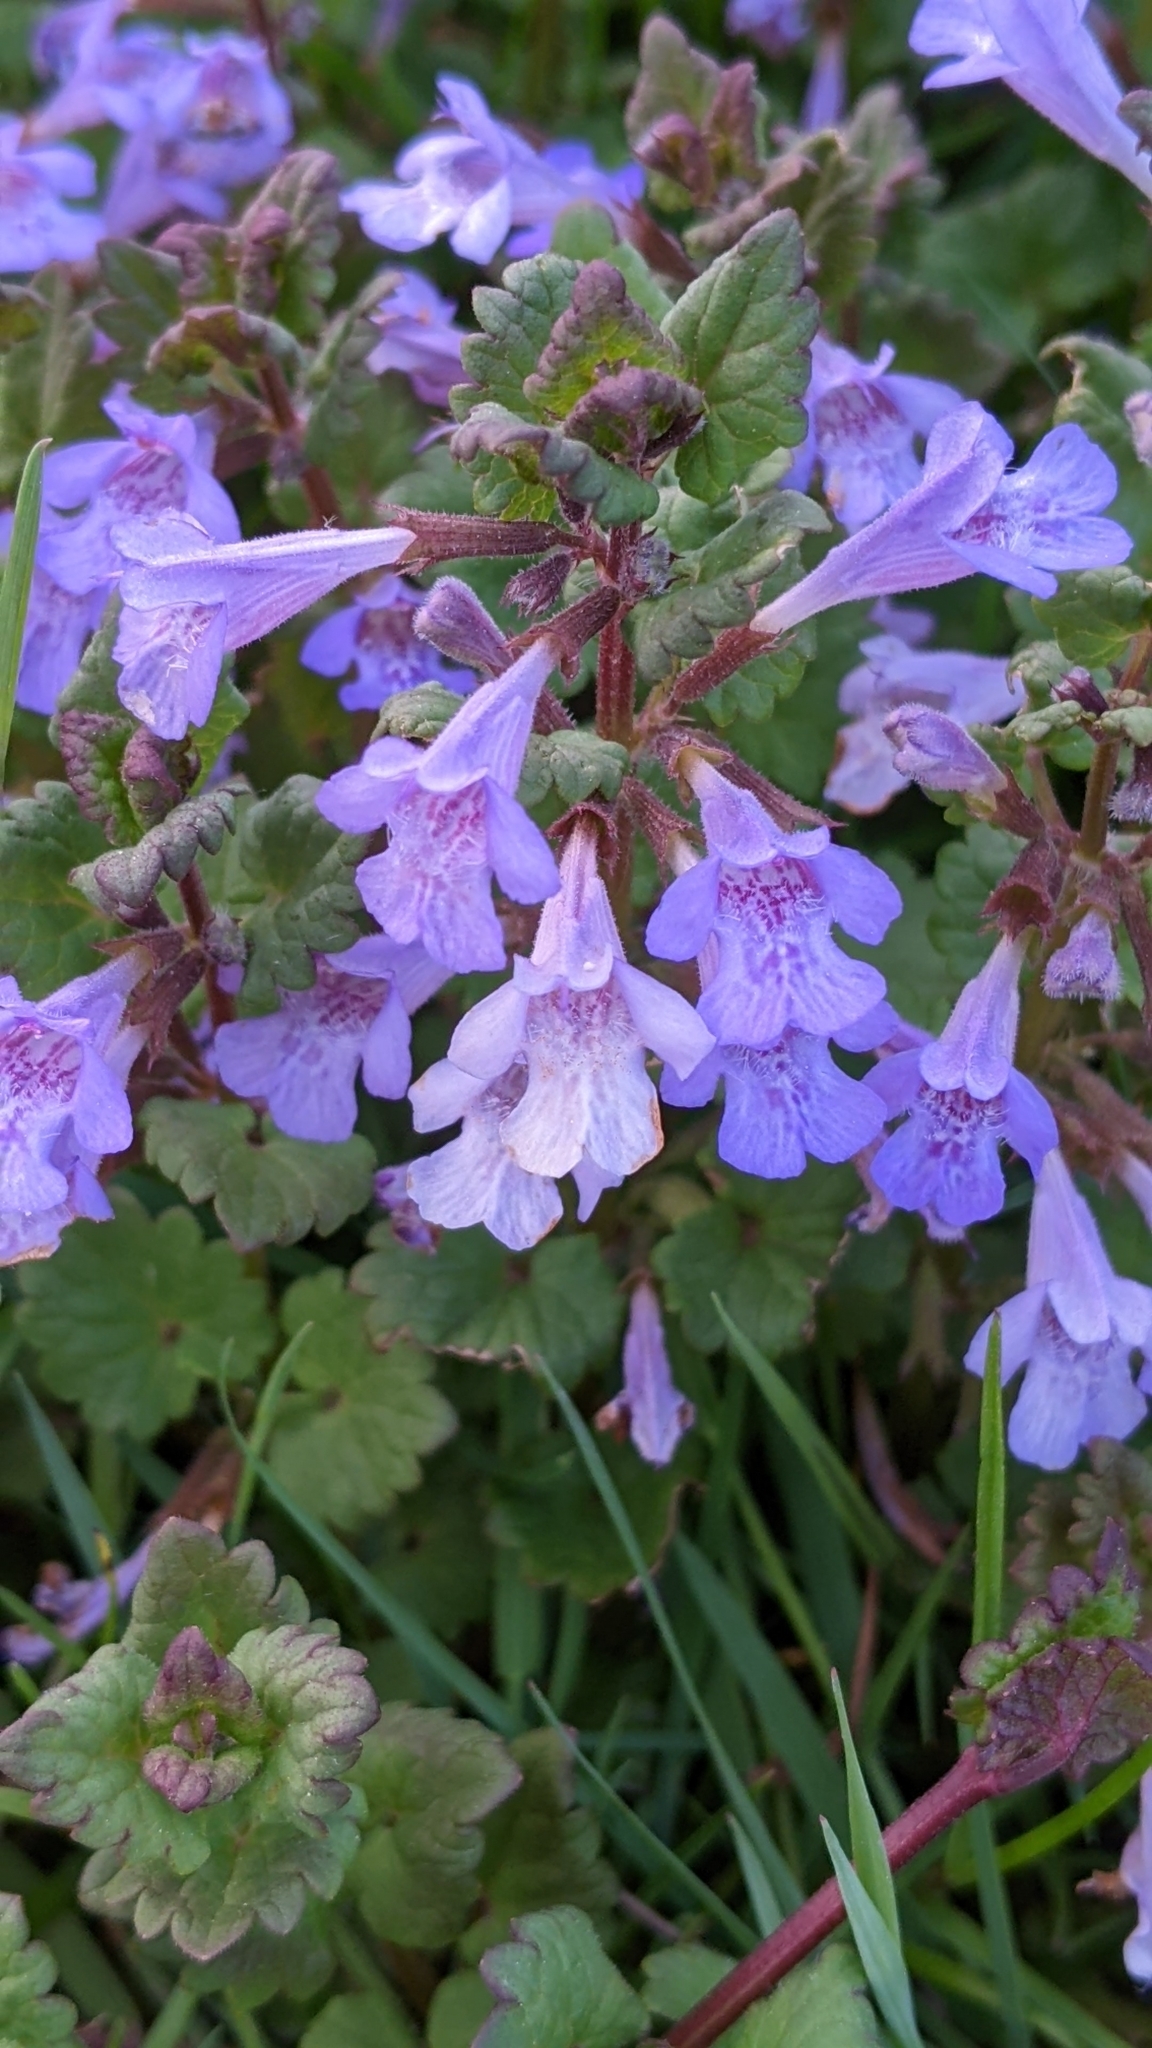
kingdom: Plantae
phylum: Tracheophyta
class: Magnoliopsida
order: Lamiales
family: Lamiaceae
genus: Glechoma
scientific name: Glechoma hederacea
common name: Ground ivy
